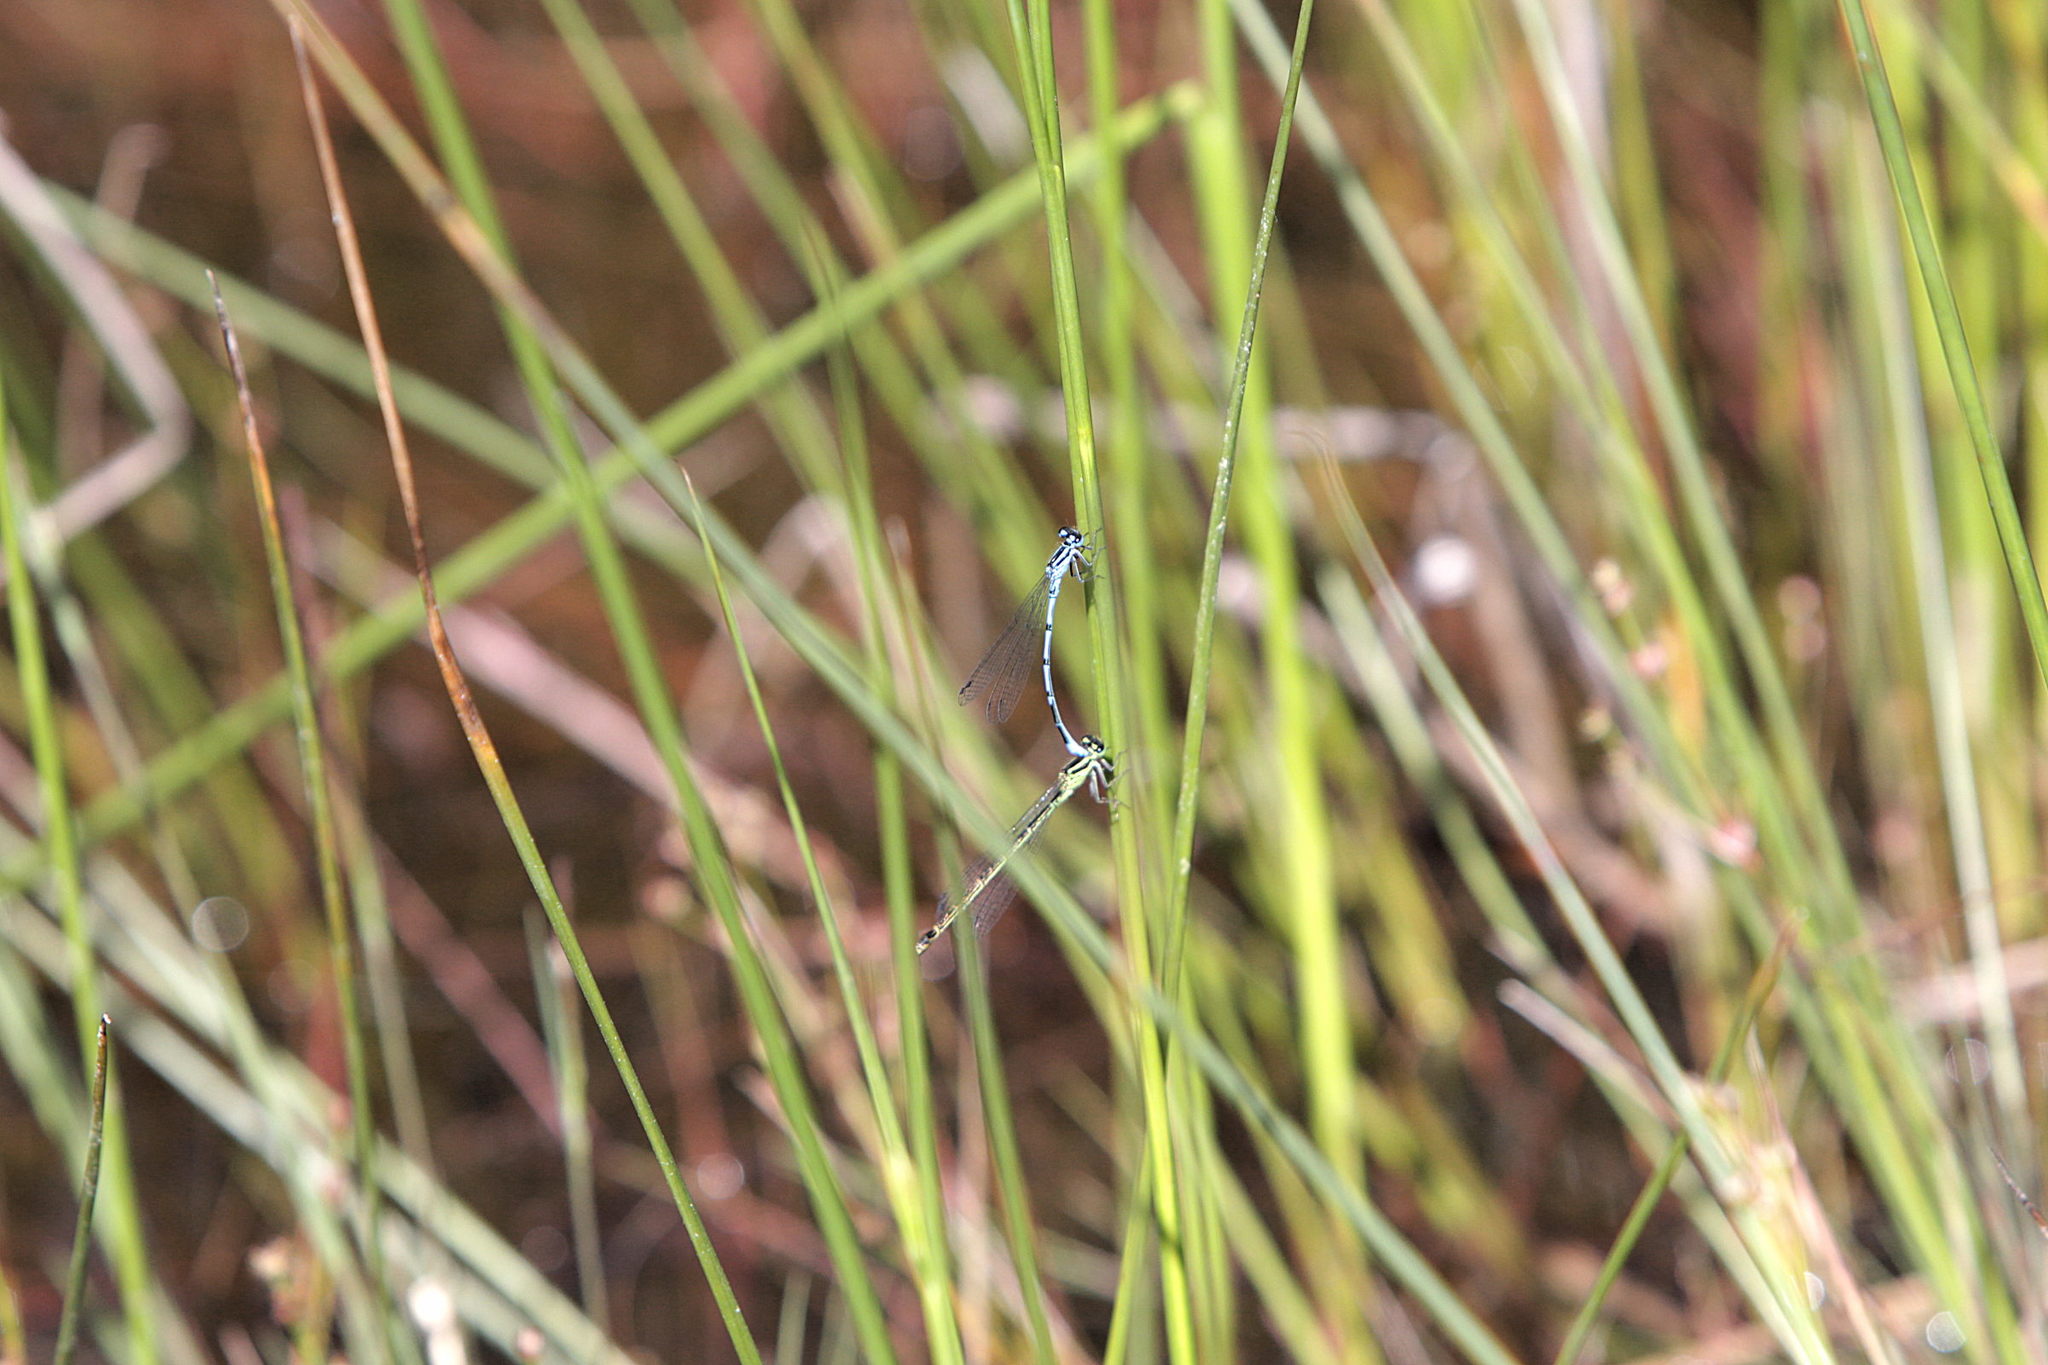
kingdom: Animalia
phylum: Arthropoda
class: Insecta
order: Odonata
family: Coenagrionidae
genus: Coenagrion
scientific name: Coenagrion puella
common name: Azure damselfly
